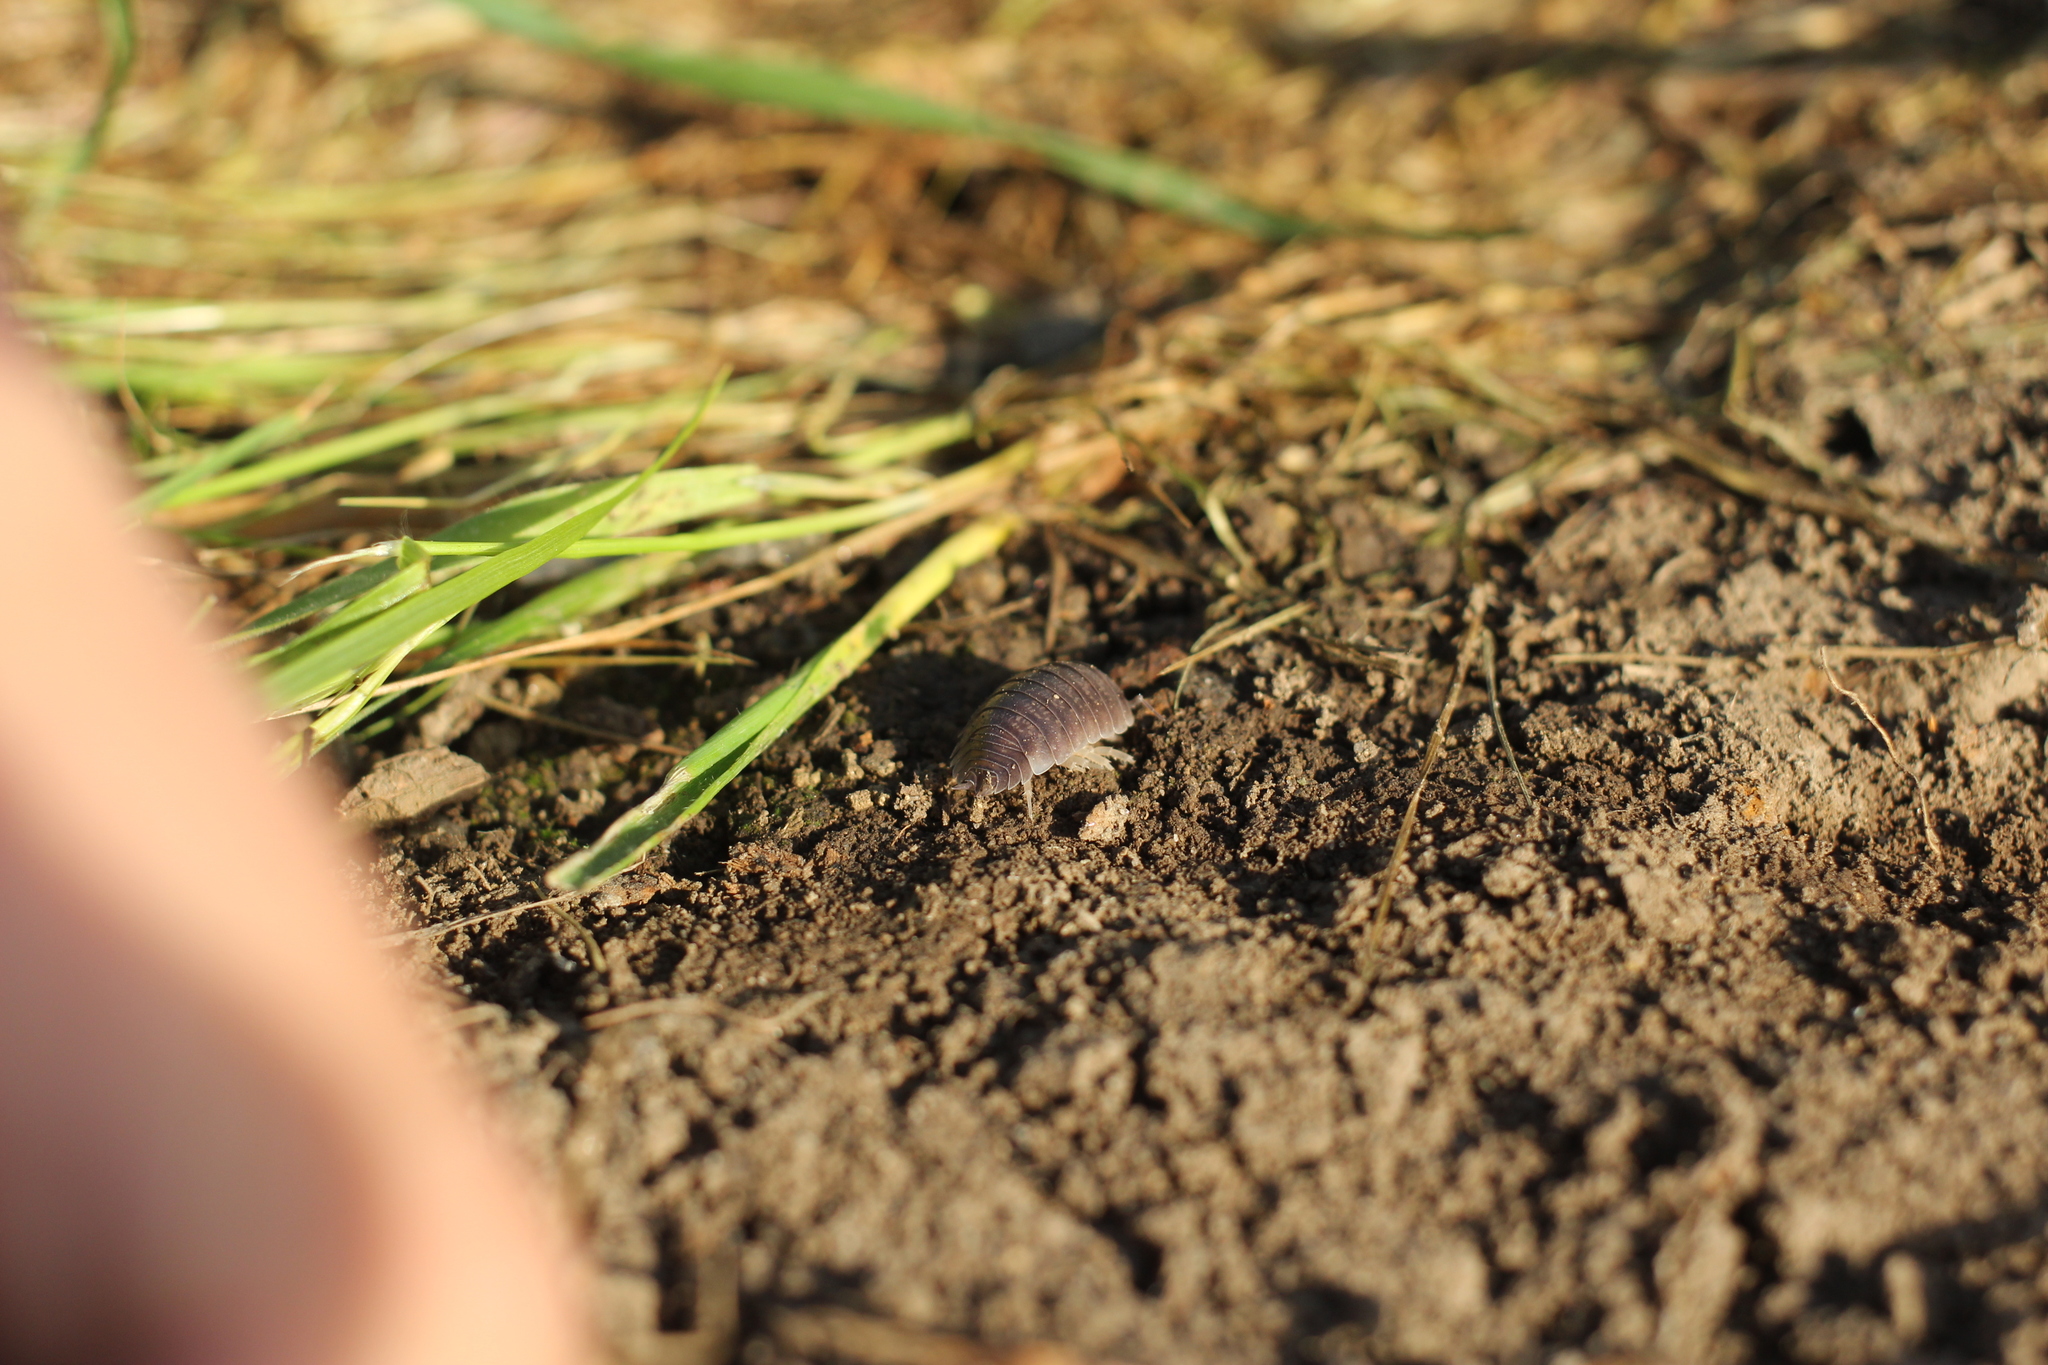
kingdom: Animalia
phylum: Arthropoda
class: Malacostraca
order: Isopoda
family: Porcellionidae
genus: Porcellio
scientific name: Porcellio laevis
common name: Swift woodlouse
